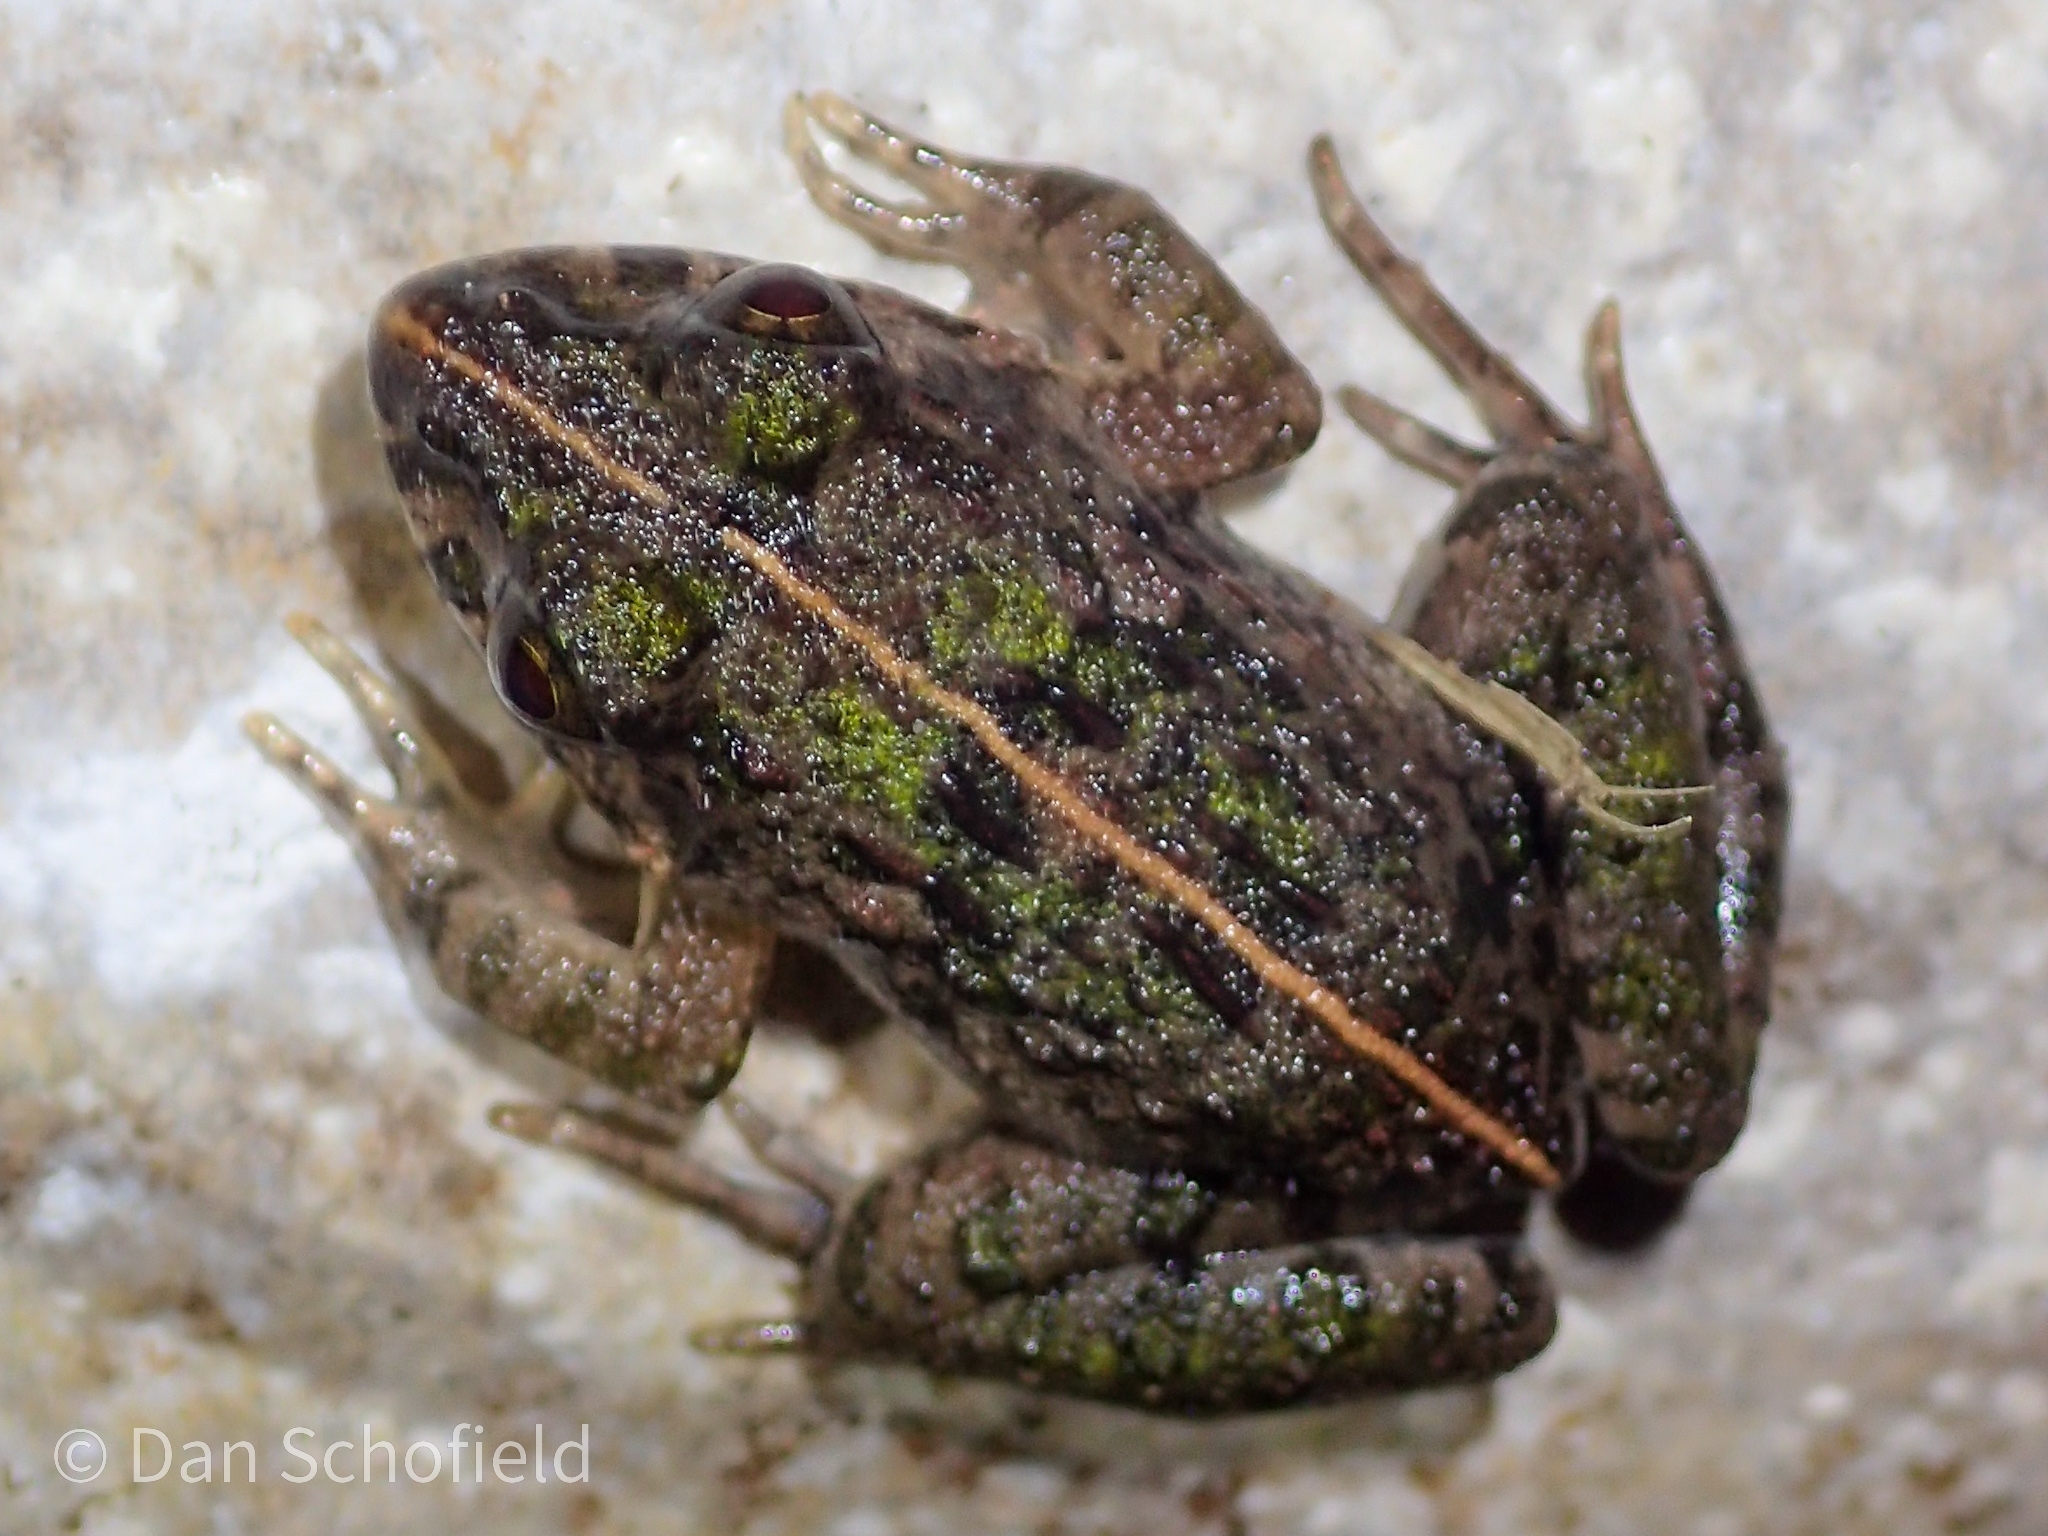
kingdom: Animalia
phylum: Chordata
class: Amphibia
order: Anura
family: Dicroglossidae
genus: Fejervarya
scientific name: Fejervarya limnocharis
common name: Asian grass frog/common pond frog/field frog/grass frog/indian rice frog
